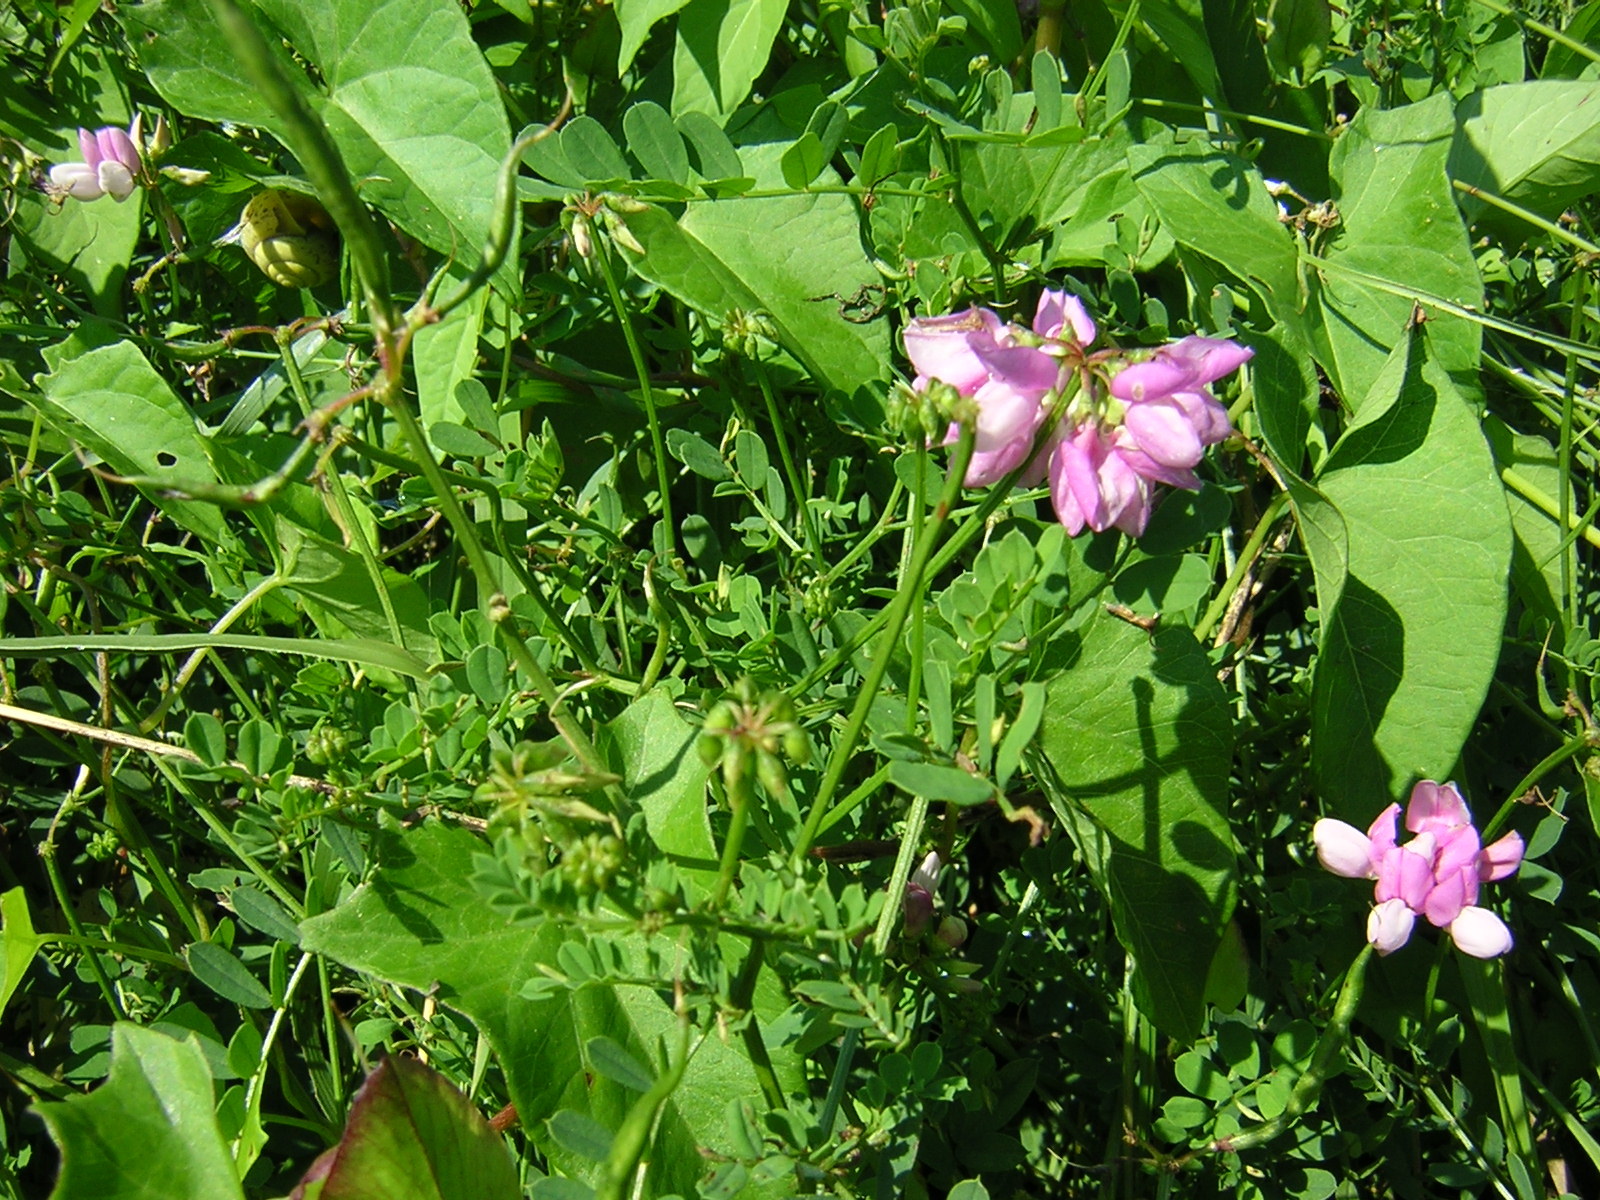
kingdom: Plantae
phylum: Tracheophyta
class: Magnoliopsida
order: Fabales
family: Fabaceae
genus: Coronilla
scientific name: Coronilla varia
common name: Crownvetch
